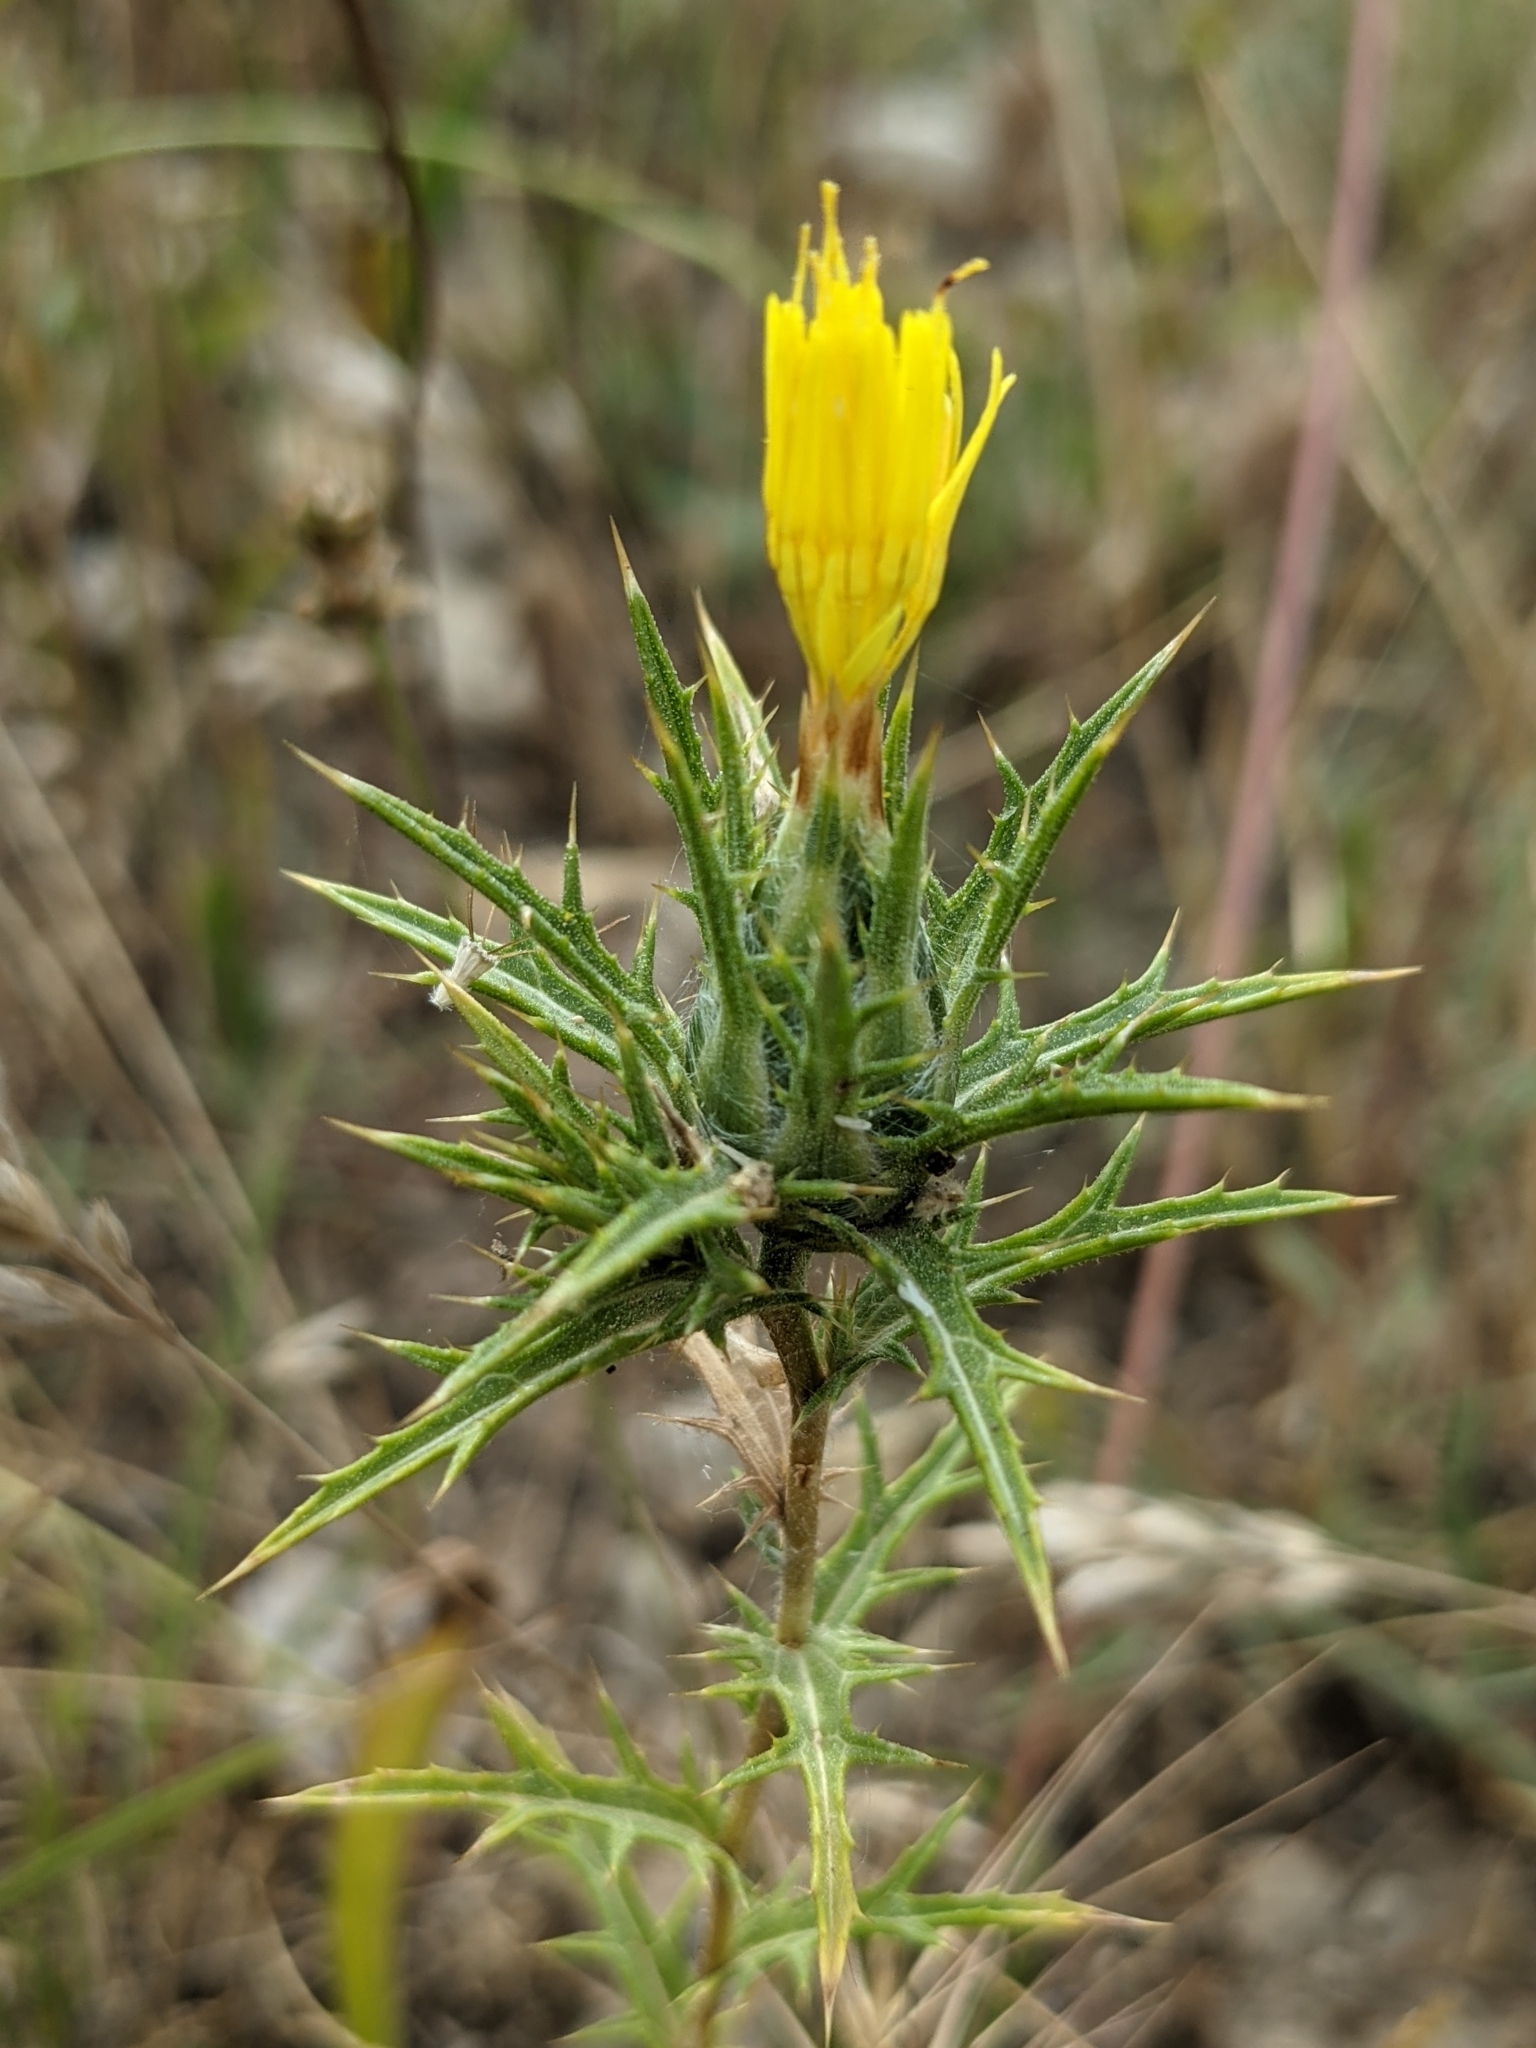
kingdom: Plantae
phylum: Tracheophyta
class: Magnoliopsida
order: Asterales
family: Asteraceae
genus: Carthamus
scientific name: Carthamus lanatus
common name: Downy safflower
